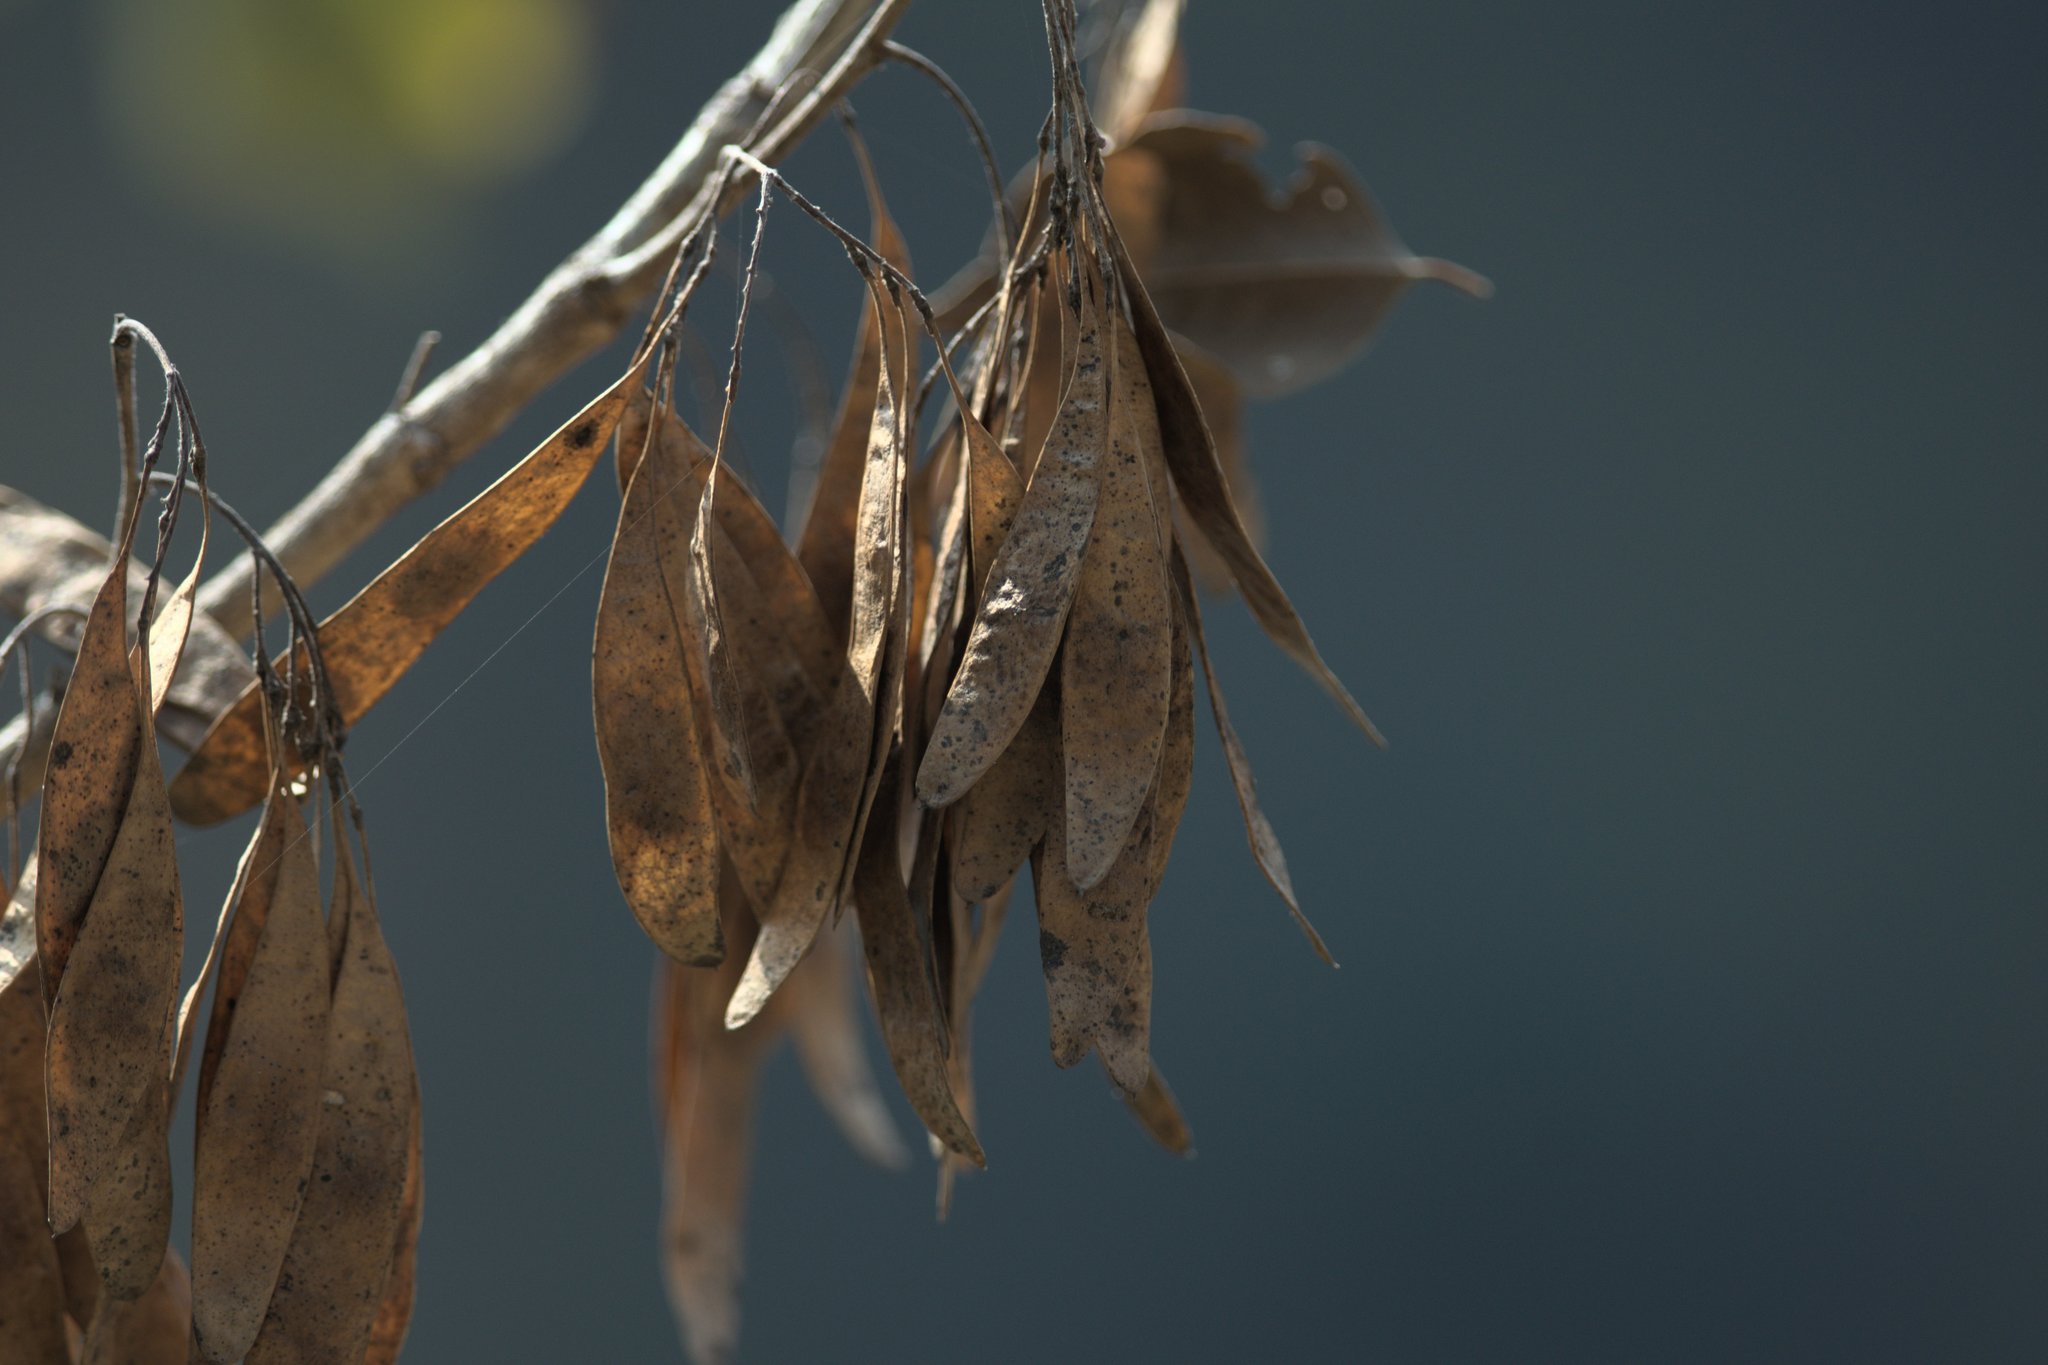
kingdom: Plantae
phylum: Tracheophyta
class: Magnoliopsida
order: Fabales
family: Fabaceae
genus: Dalbergia
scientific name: Dalbergia sissoo
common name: Indian rosewood
